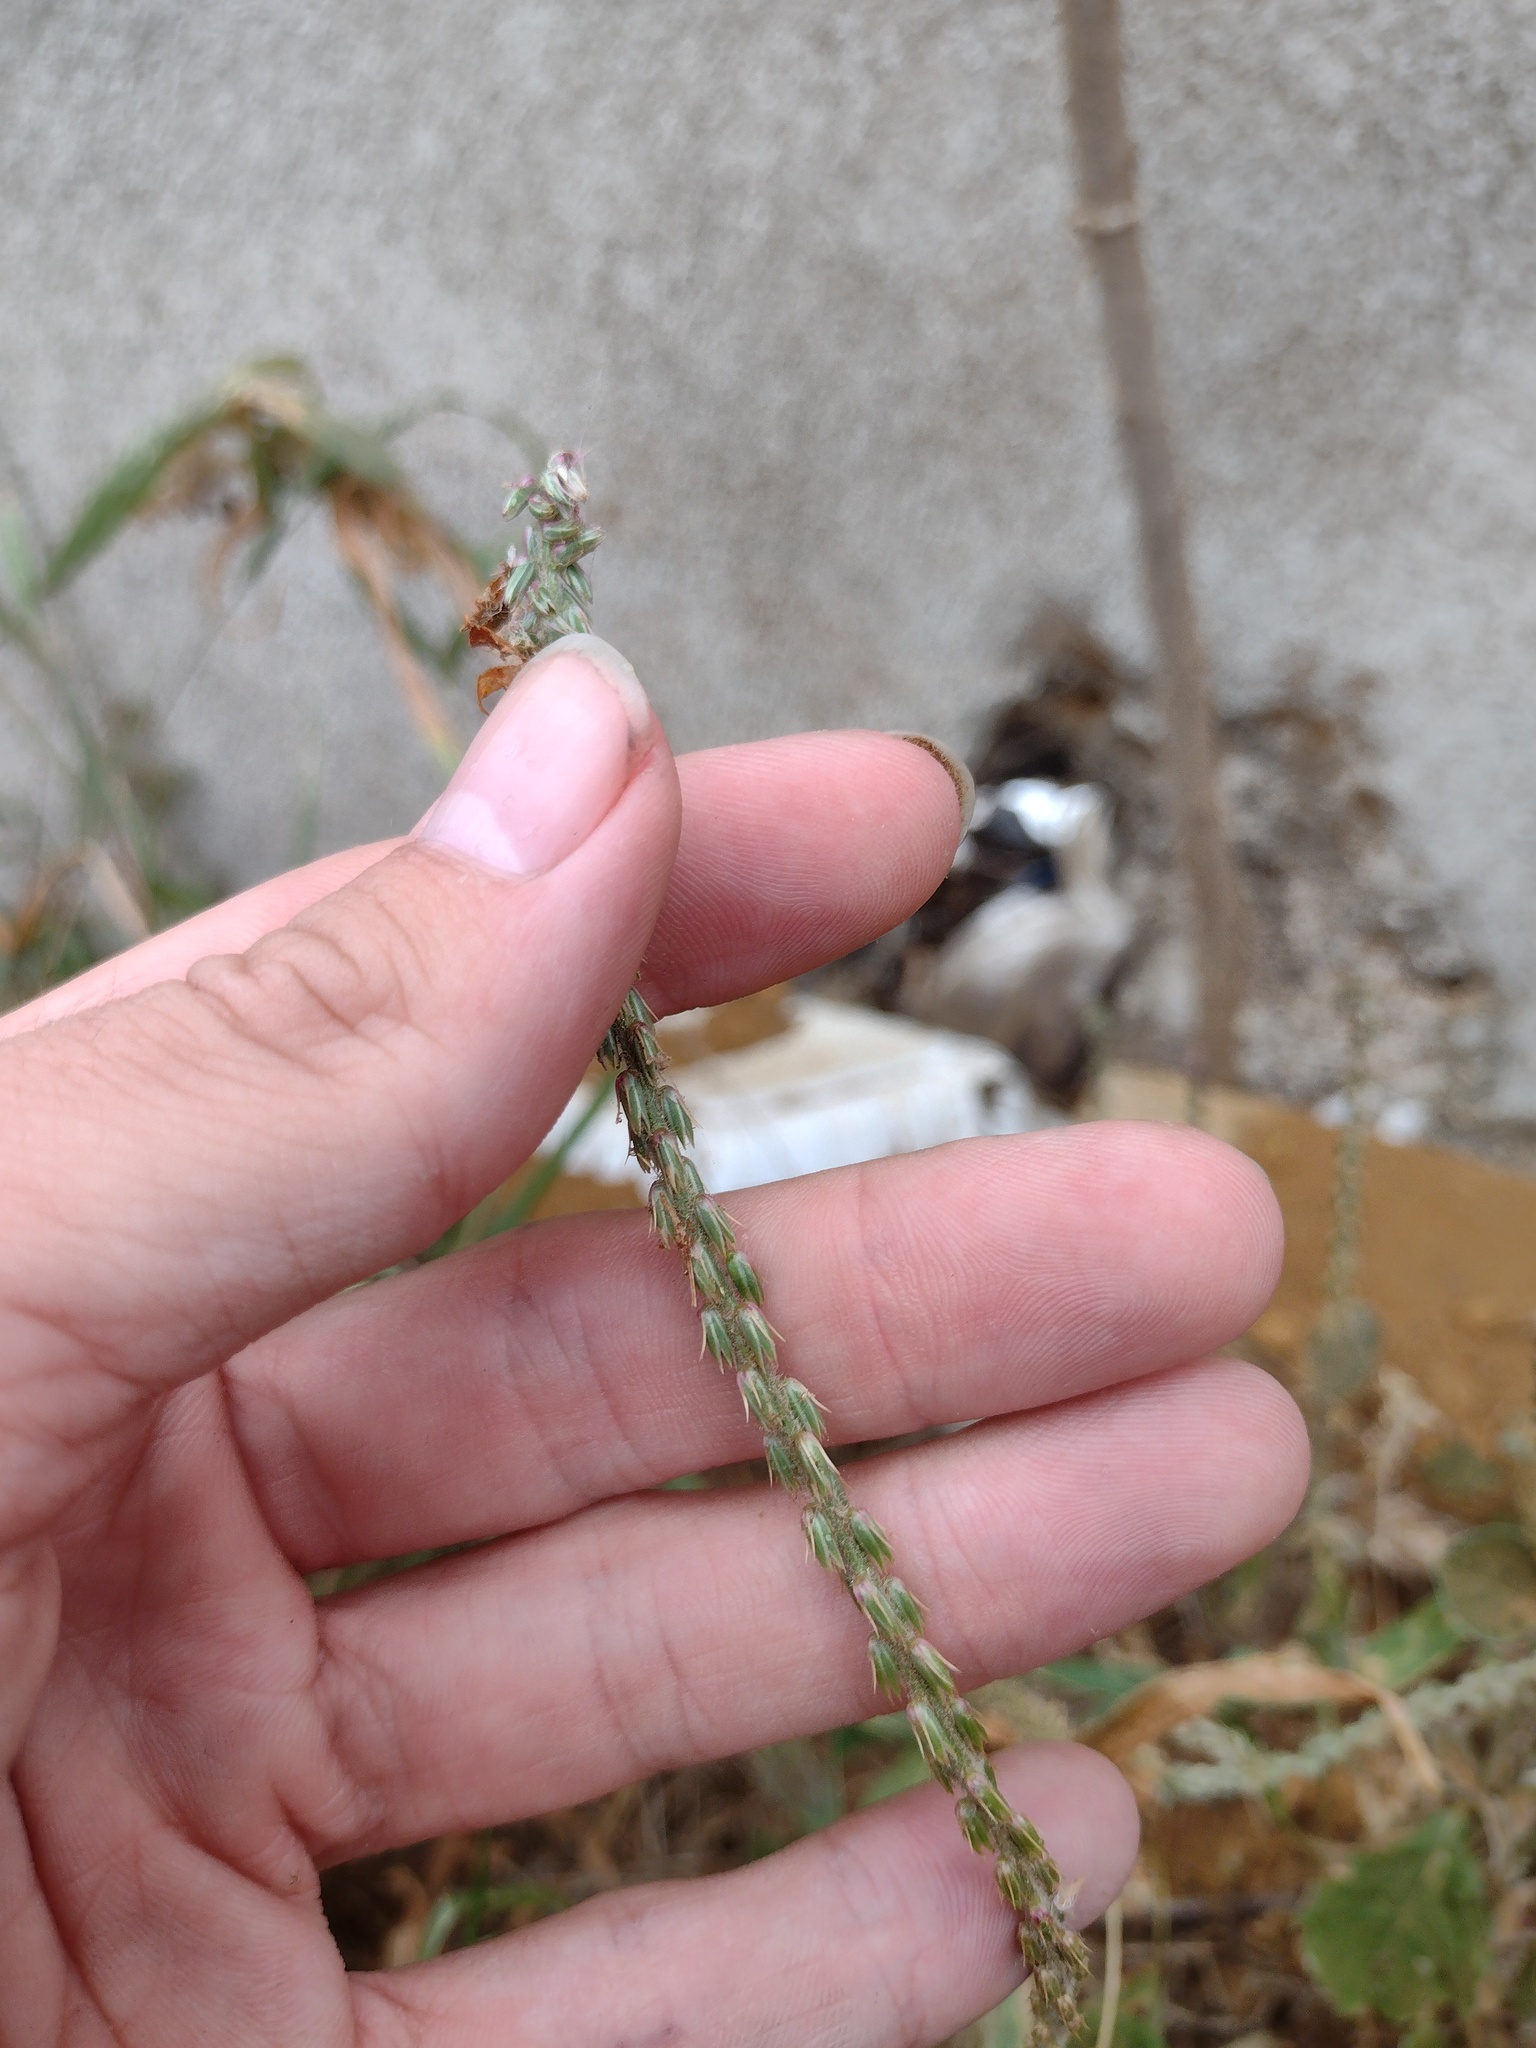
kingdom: Plantae
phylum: Tracheophyta
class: Magnoliopsida
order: Caryophyllales
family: Amaranthaceae
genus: Achyranthes
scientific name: Achyranthes aspera
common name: Devil's horsewhip
